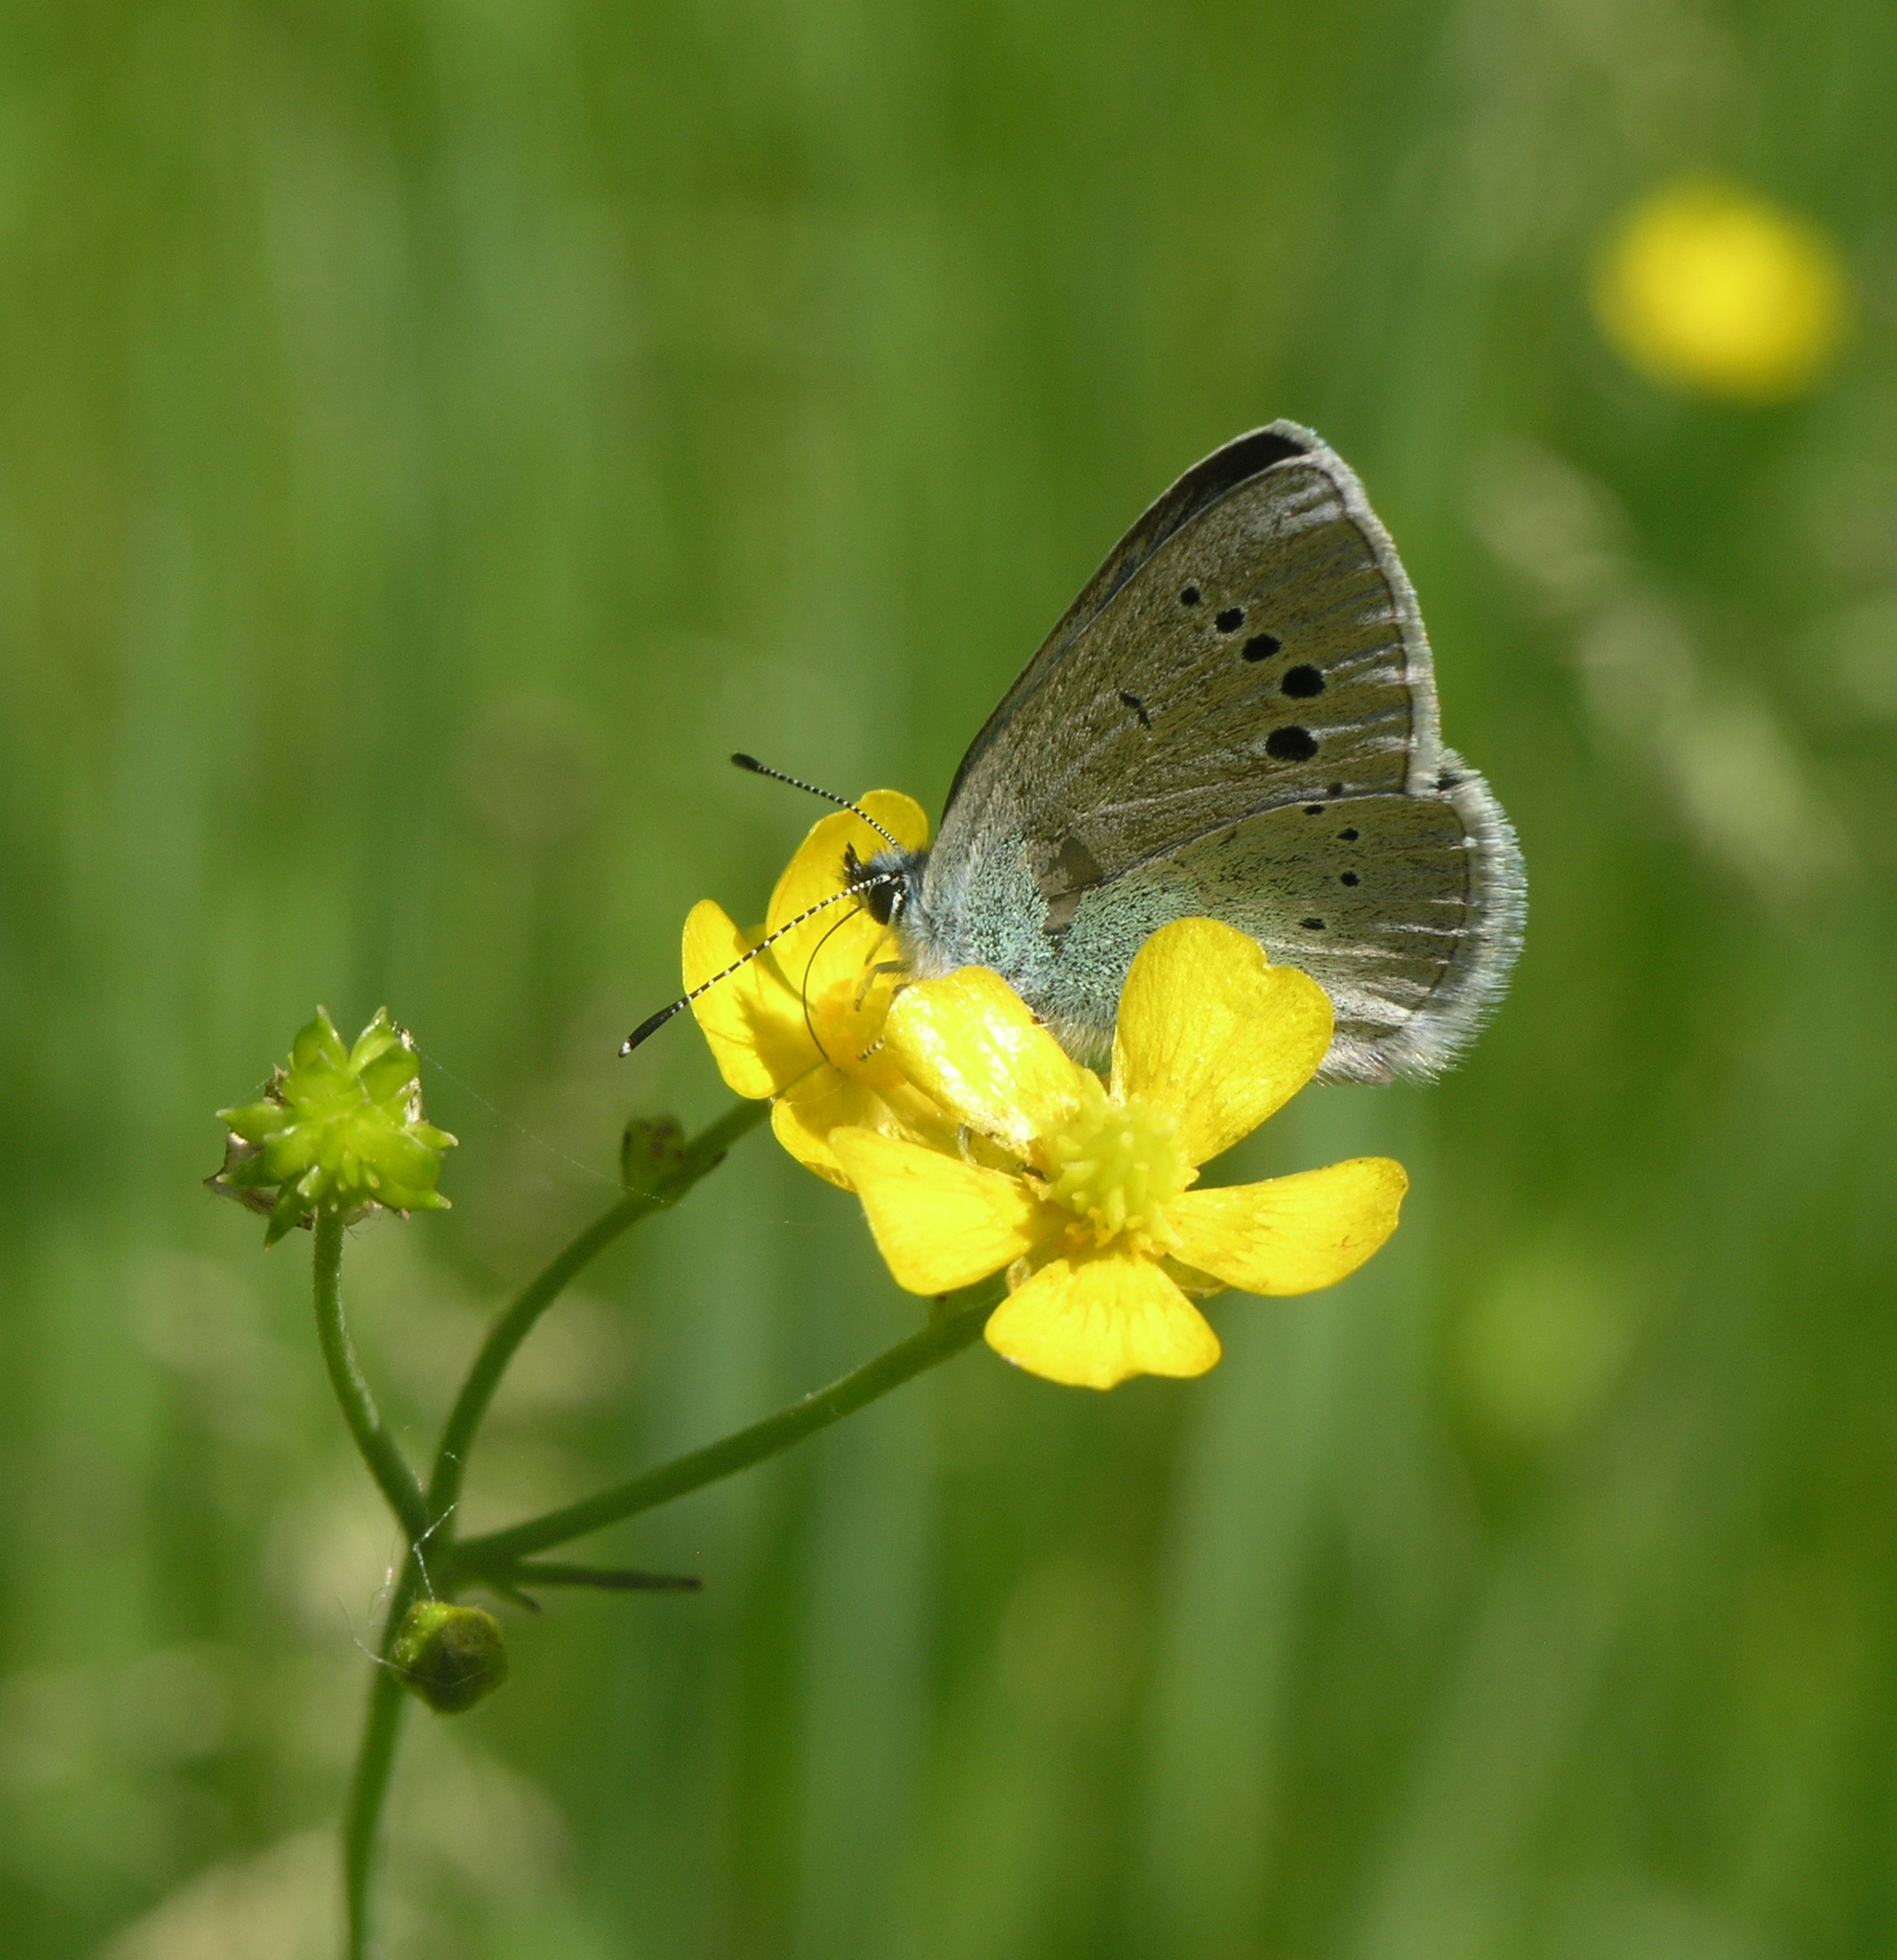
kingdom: Animalia
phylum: Arthropoda
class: Insecta
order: Lepidoptera
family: Lycaenidae
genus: Glaucopsyche
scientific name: Glaucopsyche alexis
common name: Green-underside blue
